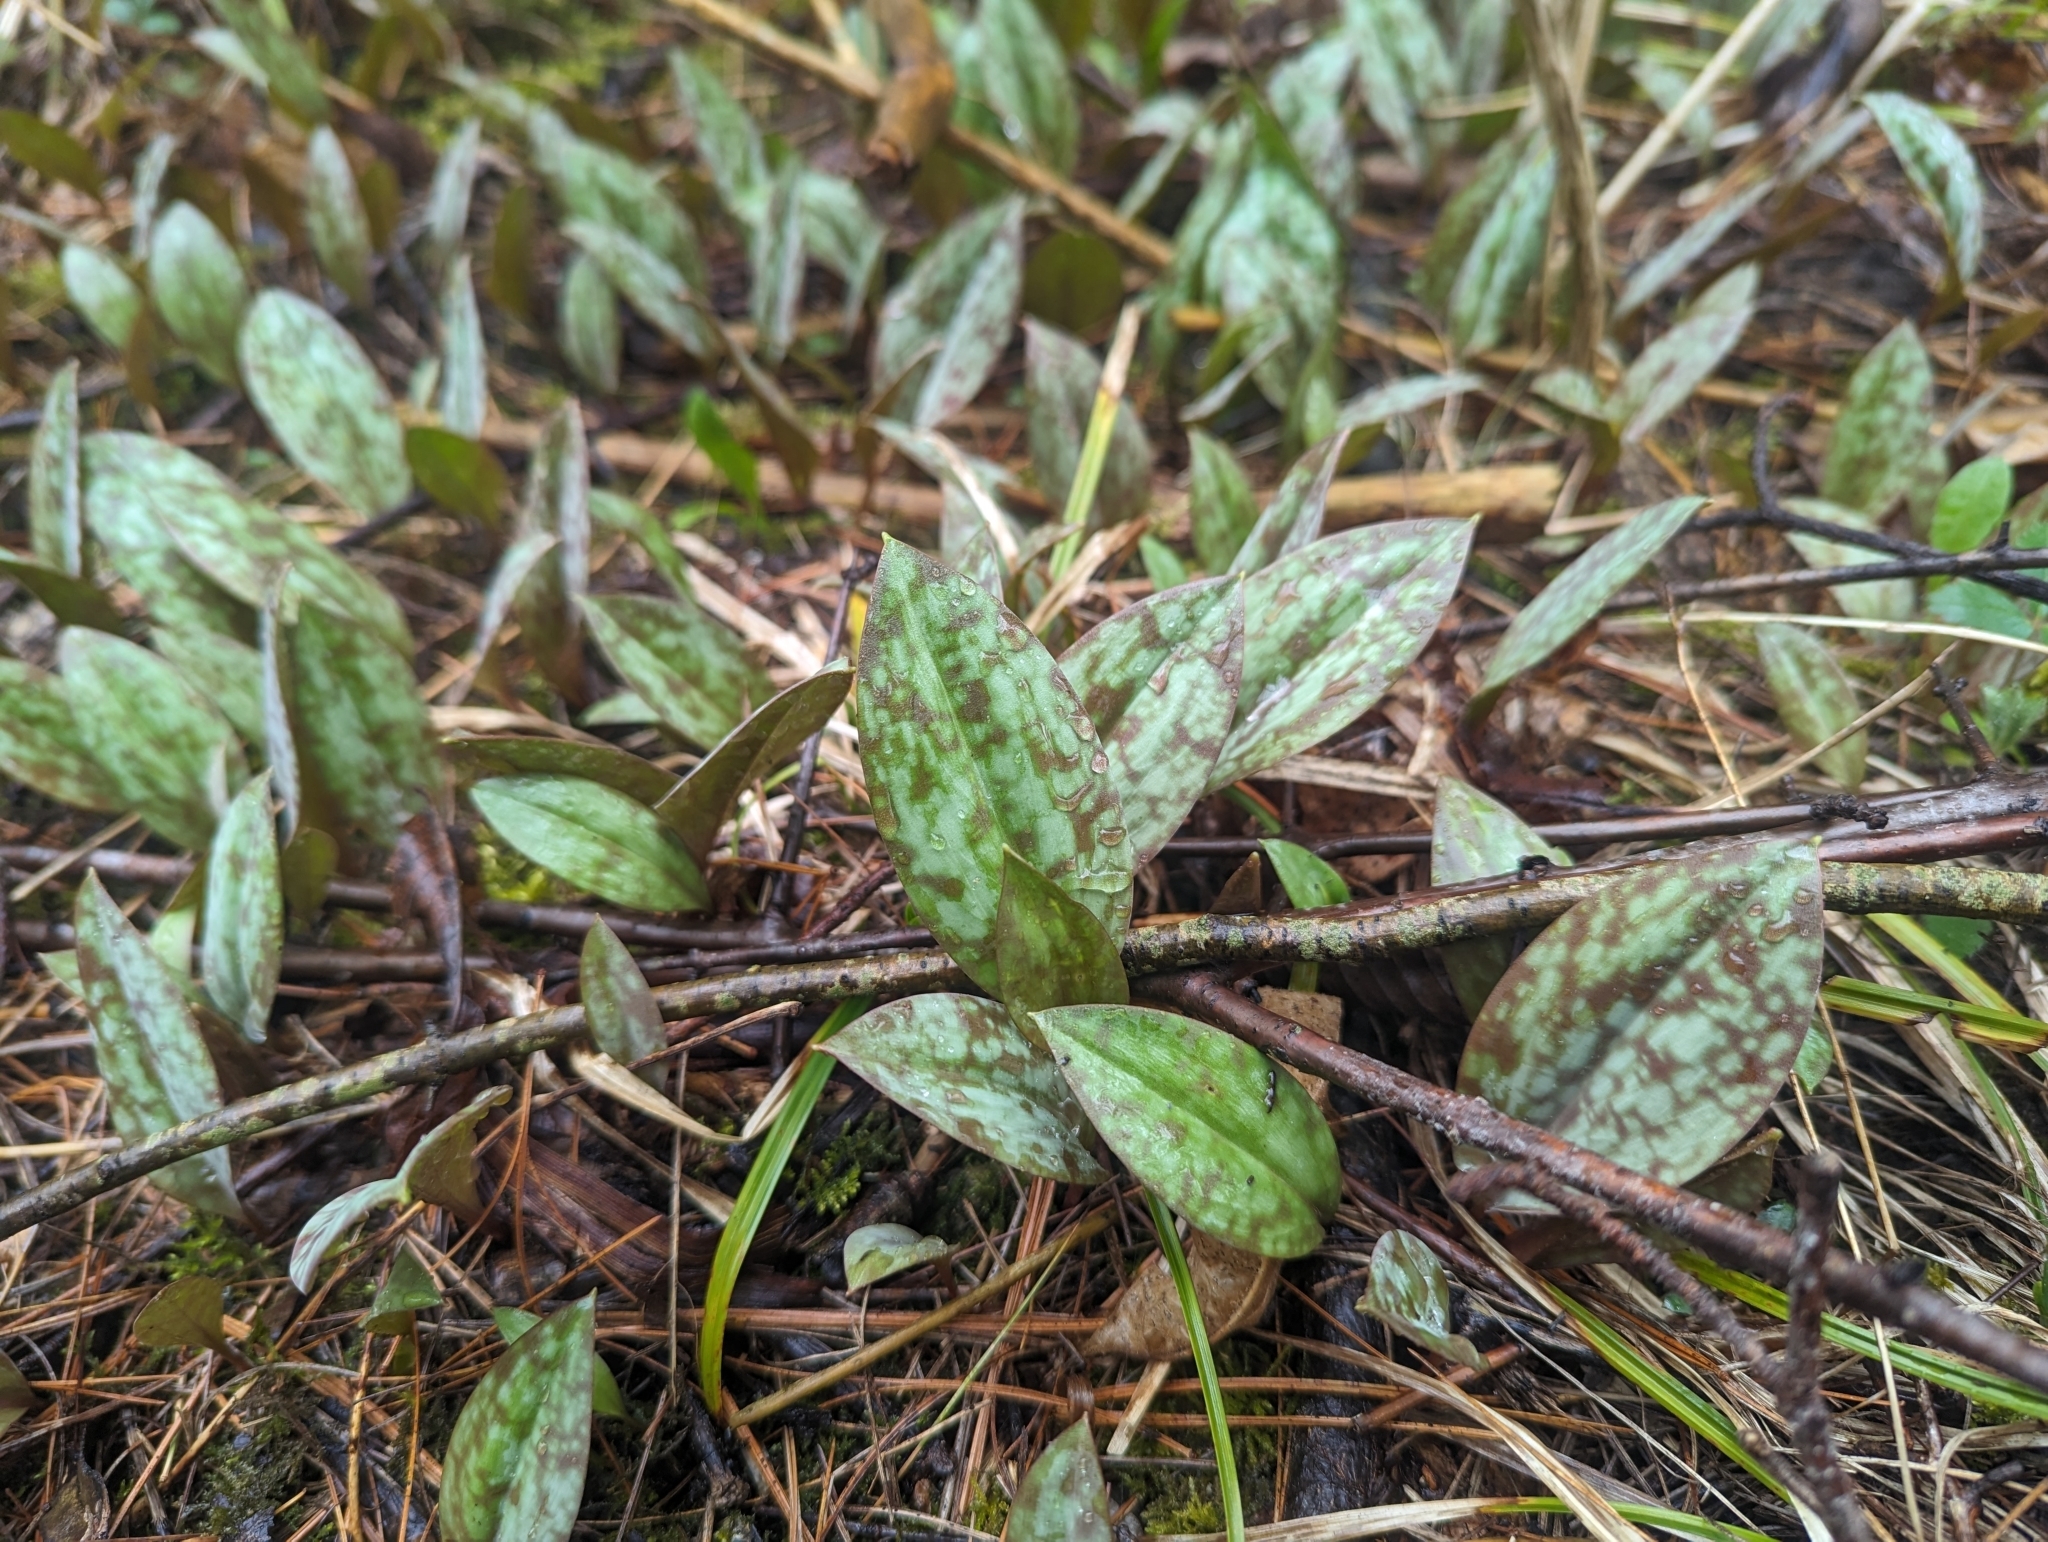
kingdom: Plantae
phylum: Tracheophyta
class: Liliopsida
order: Liliales
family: Liliaceae
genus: Erythronium
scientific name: Erythronium americanum
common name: Yellow adder's-tongue
